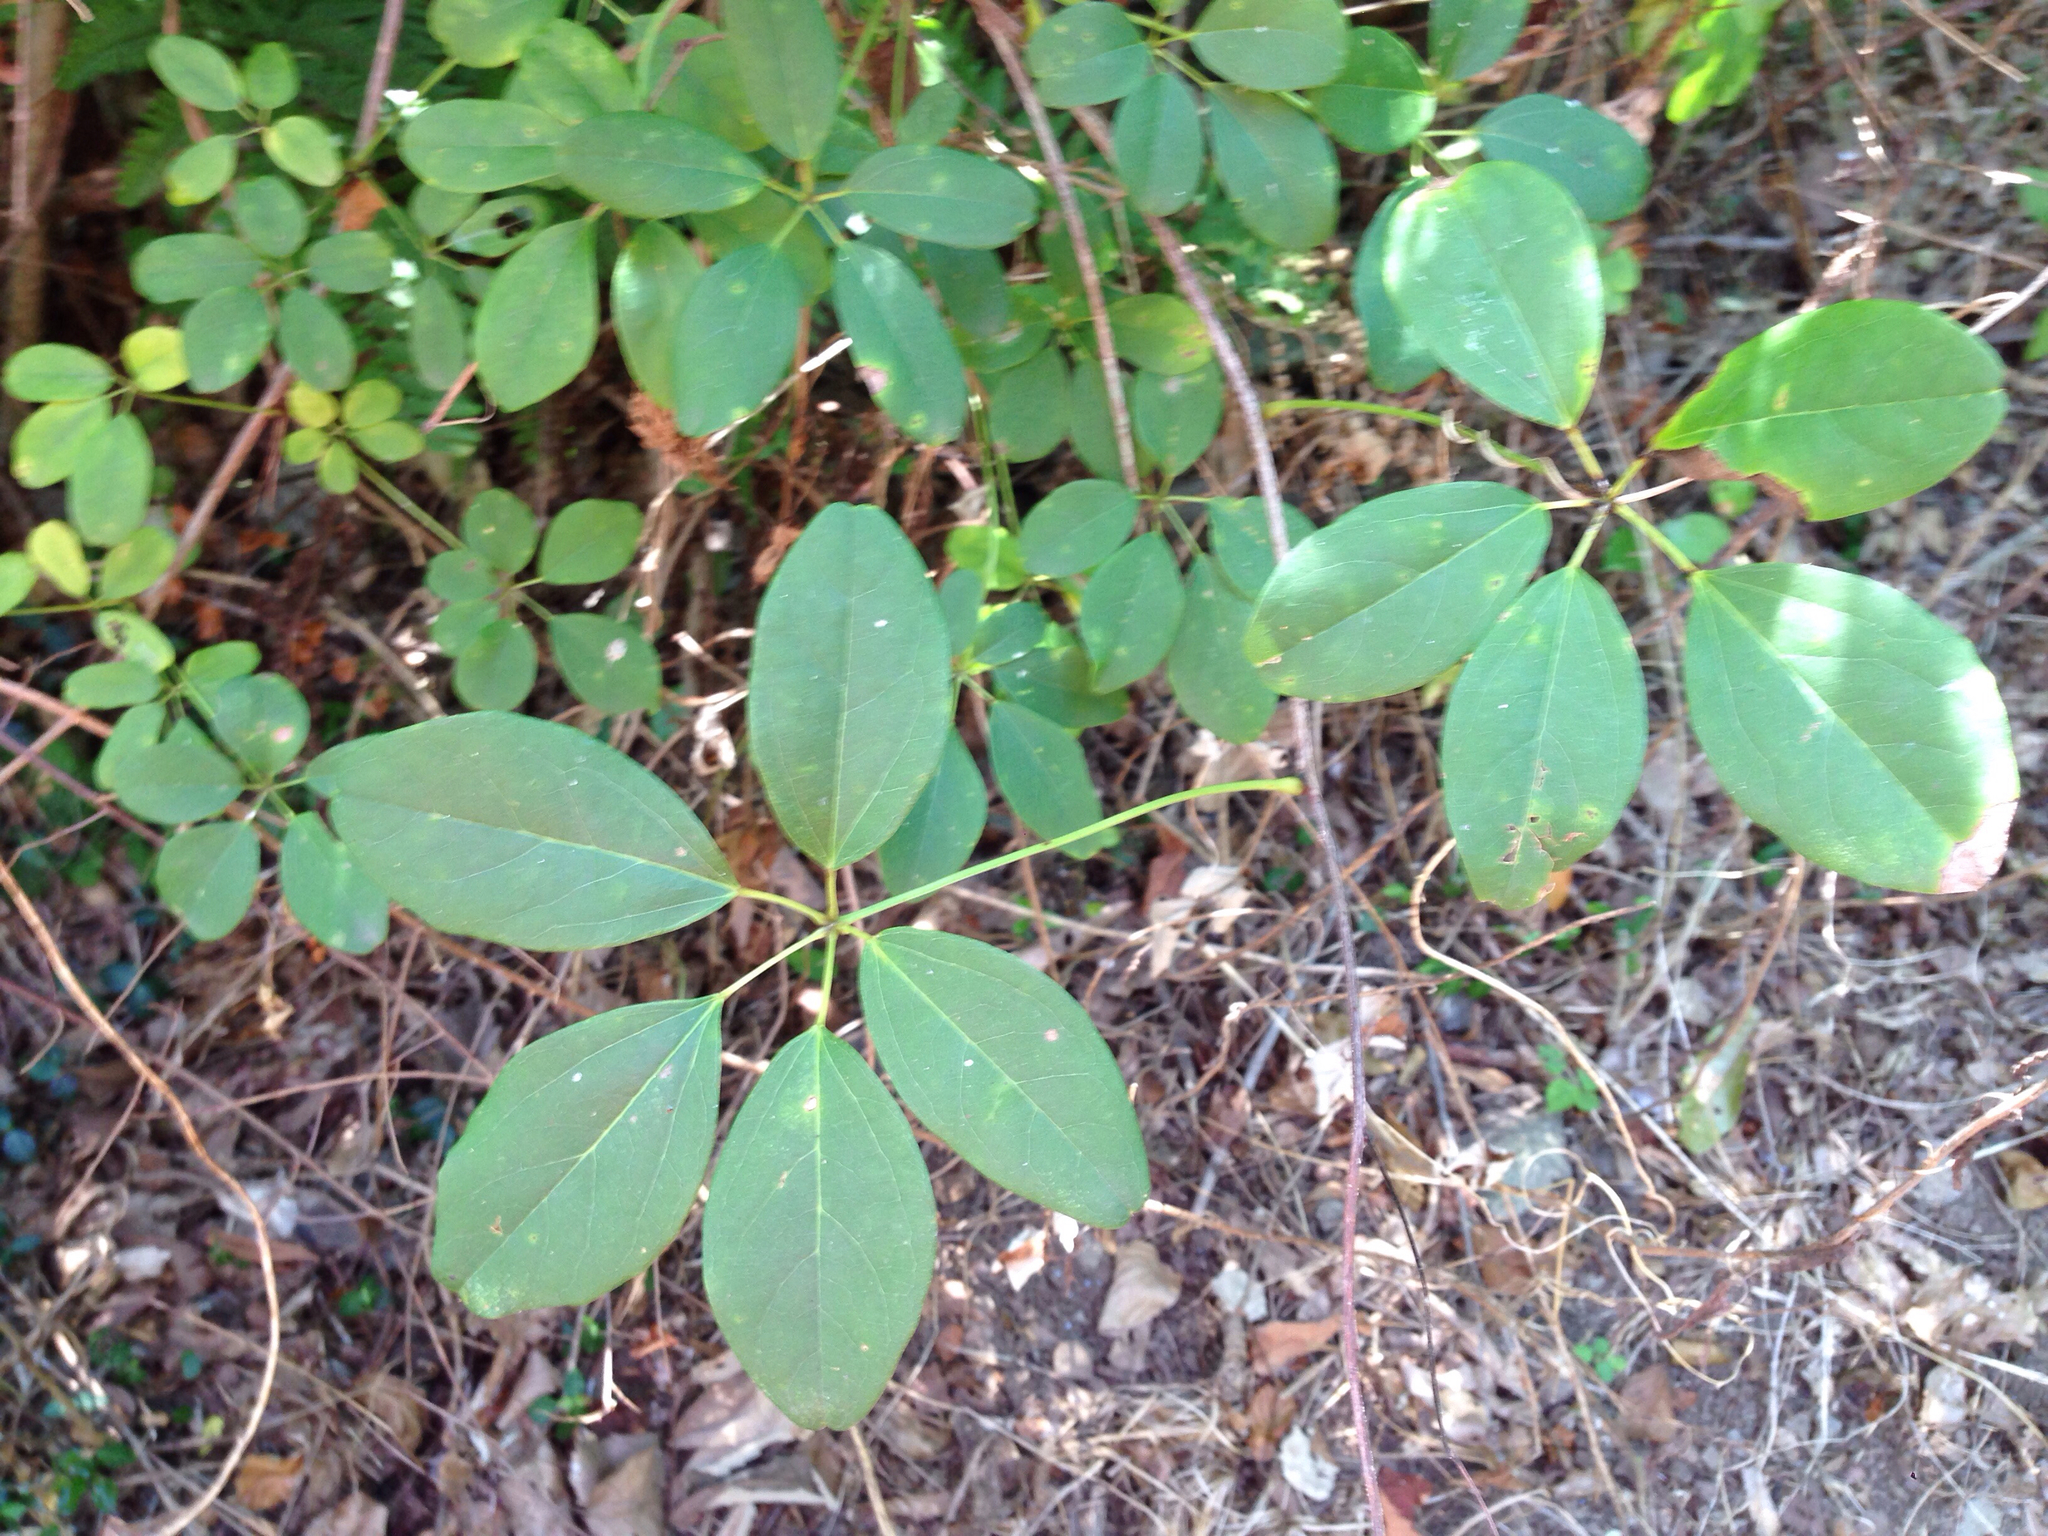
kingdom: Plantae
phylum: Tracheophyta
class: Magnoliopsida
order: Ranunculales
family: Lardizabalaceae
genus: Akebia
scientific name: Akebia quinata
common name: Five-leaf akebia
